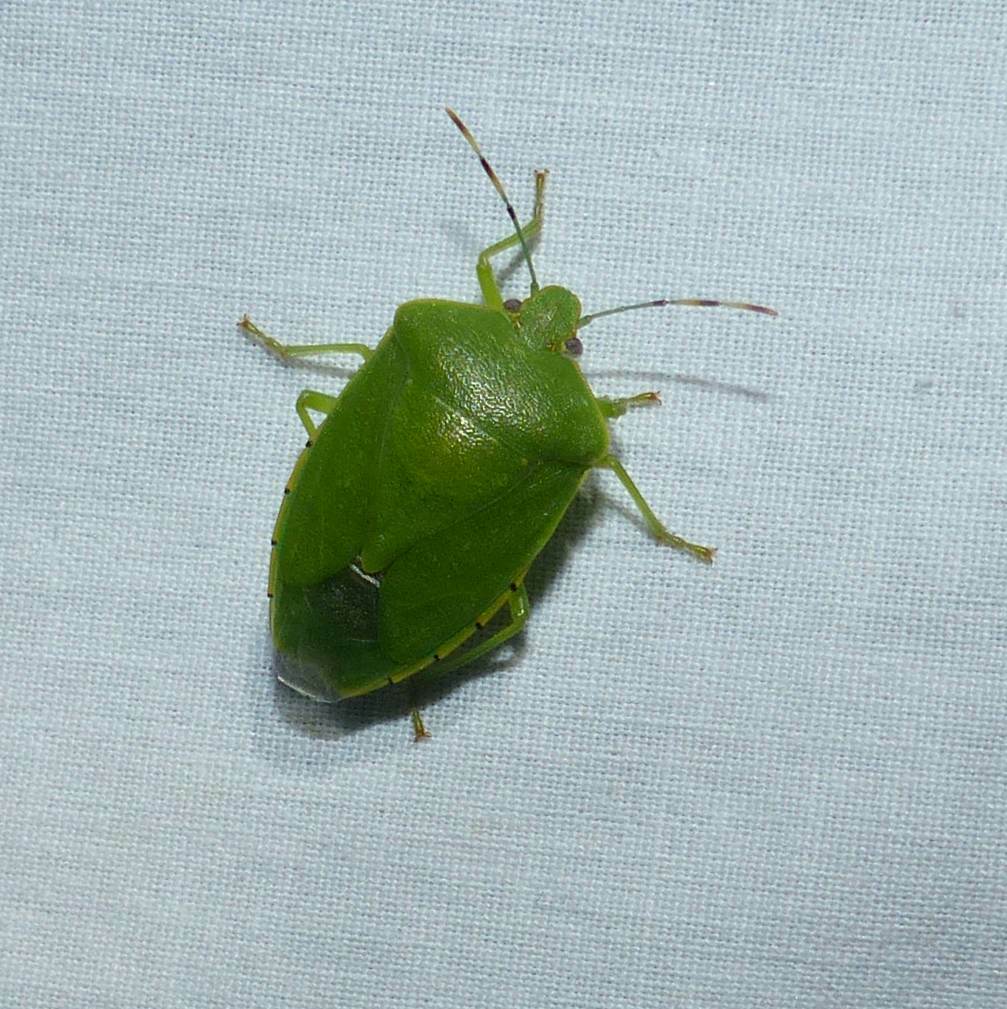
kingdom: Animalia
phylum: Arthropoda
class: Insecta
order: Hemiptera
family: Pentatomidae
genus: Chinavia
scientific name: Chinavia hilaris
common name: Green stink bug
